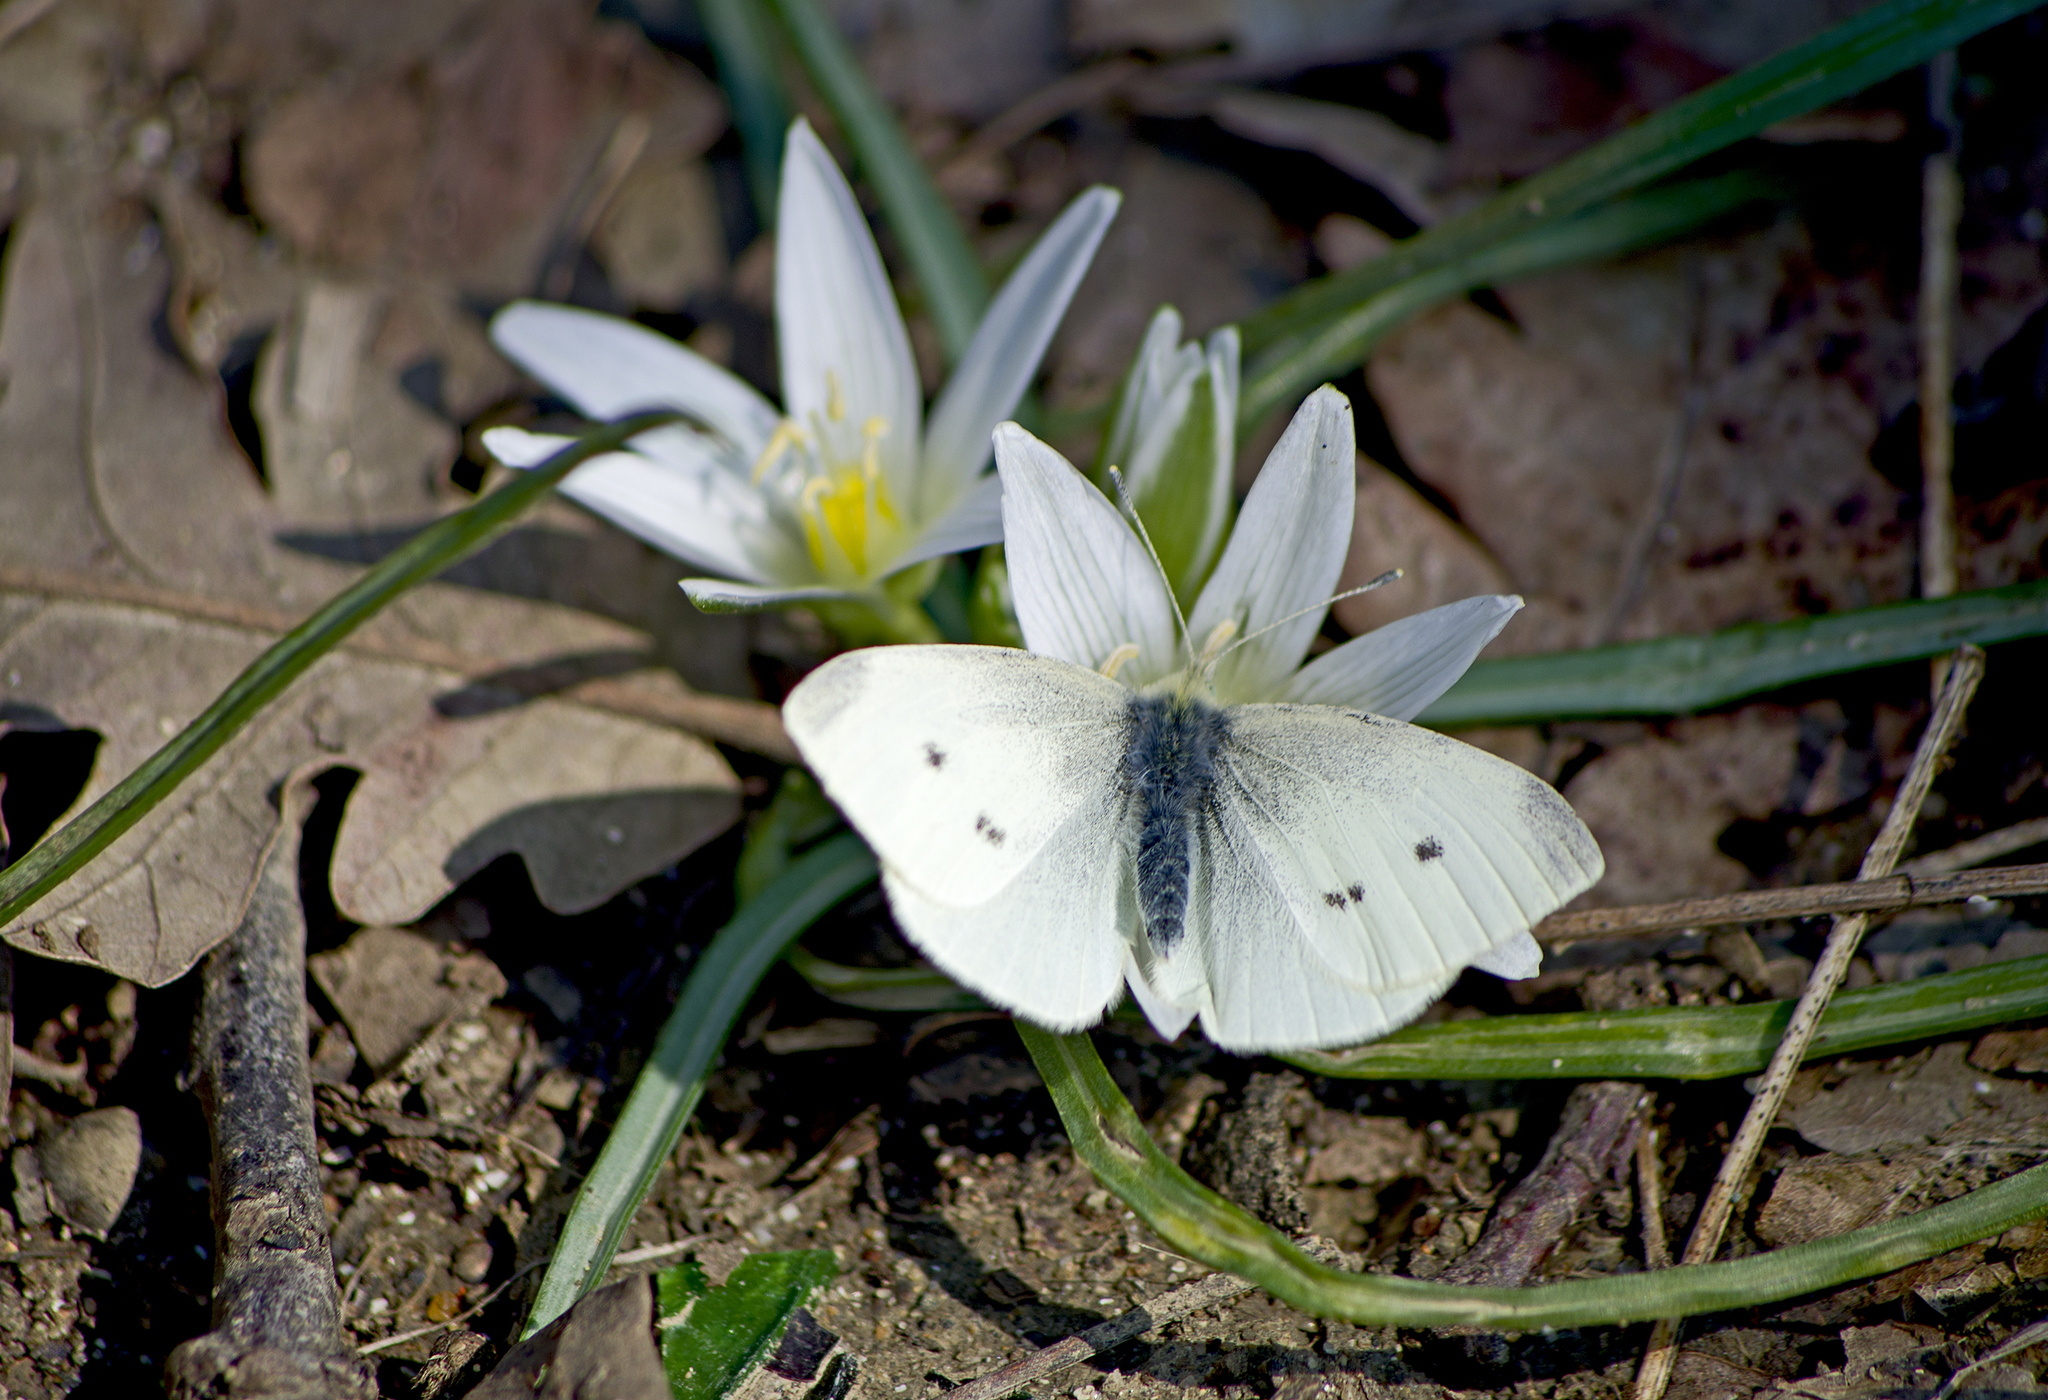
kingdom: Animalia
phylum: Arthropoda
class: Insecta
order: Lepidoptera
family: Pieridae
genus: Pieris
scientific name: Pieris rapae
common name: Small white
